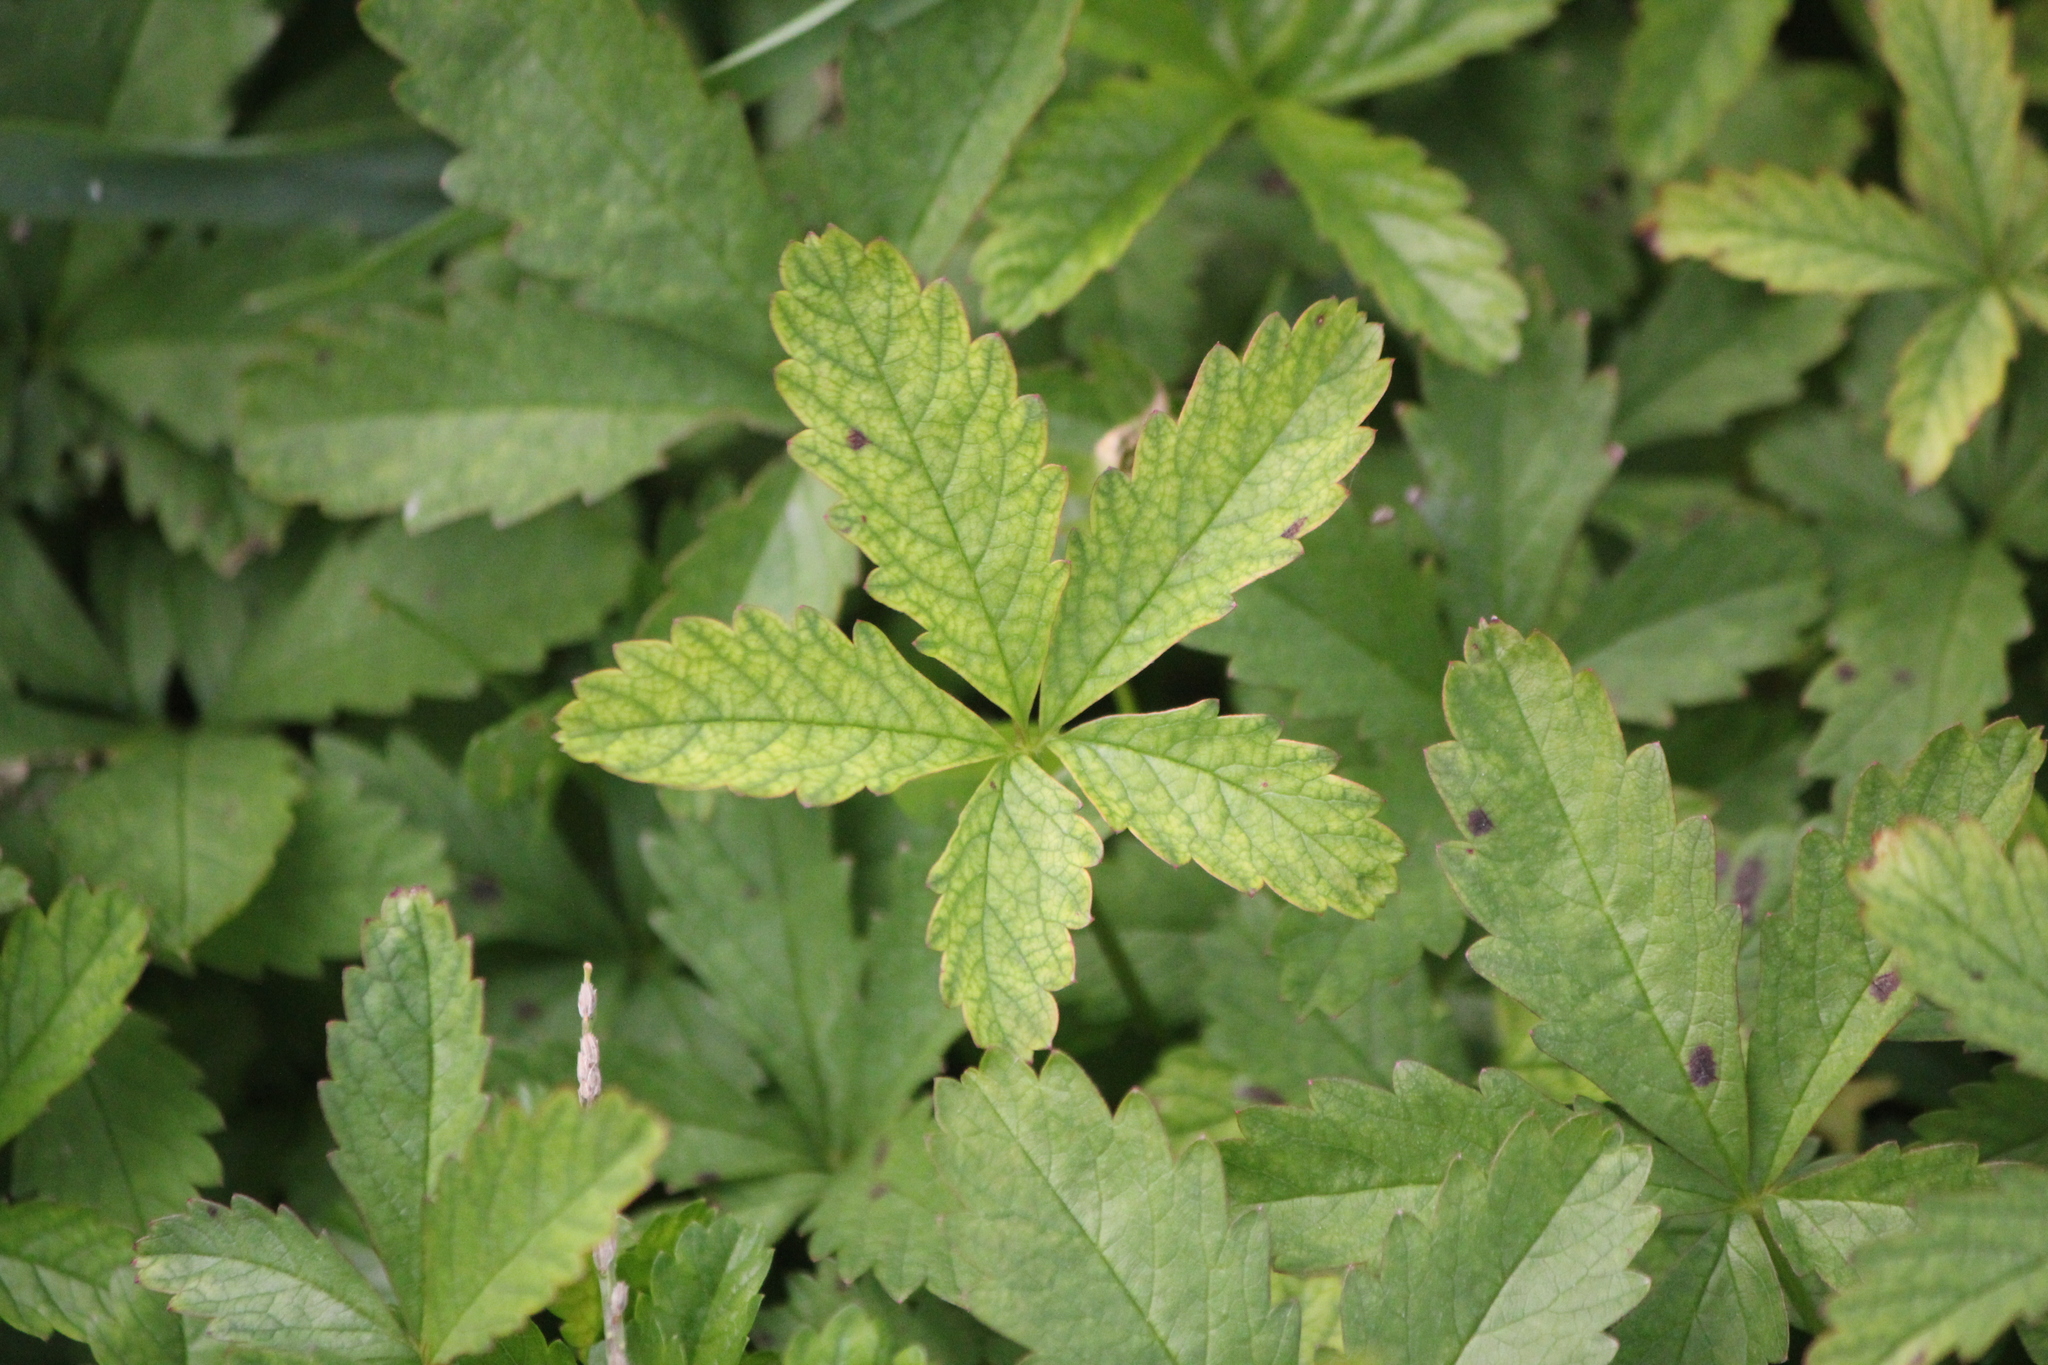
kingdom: Plantae
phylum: Tracheophyta
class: Magnoliopsida
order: Rosales
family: Rosaceae
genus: Potentilla
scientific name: Potentilla reptans
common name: Creeping cinquefoil
